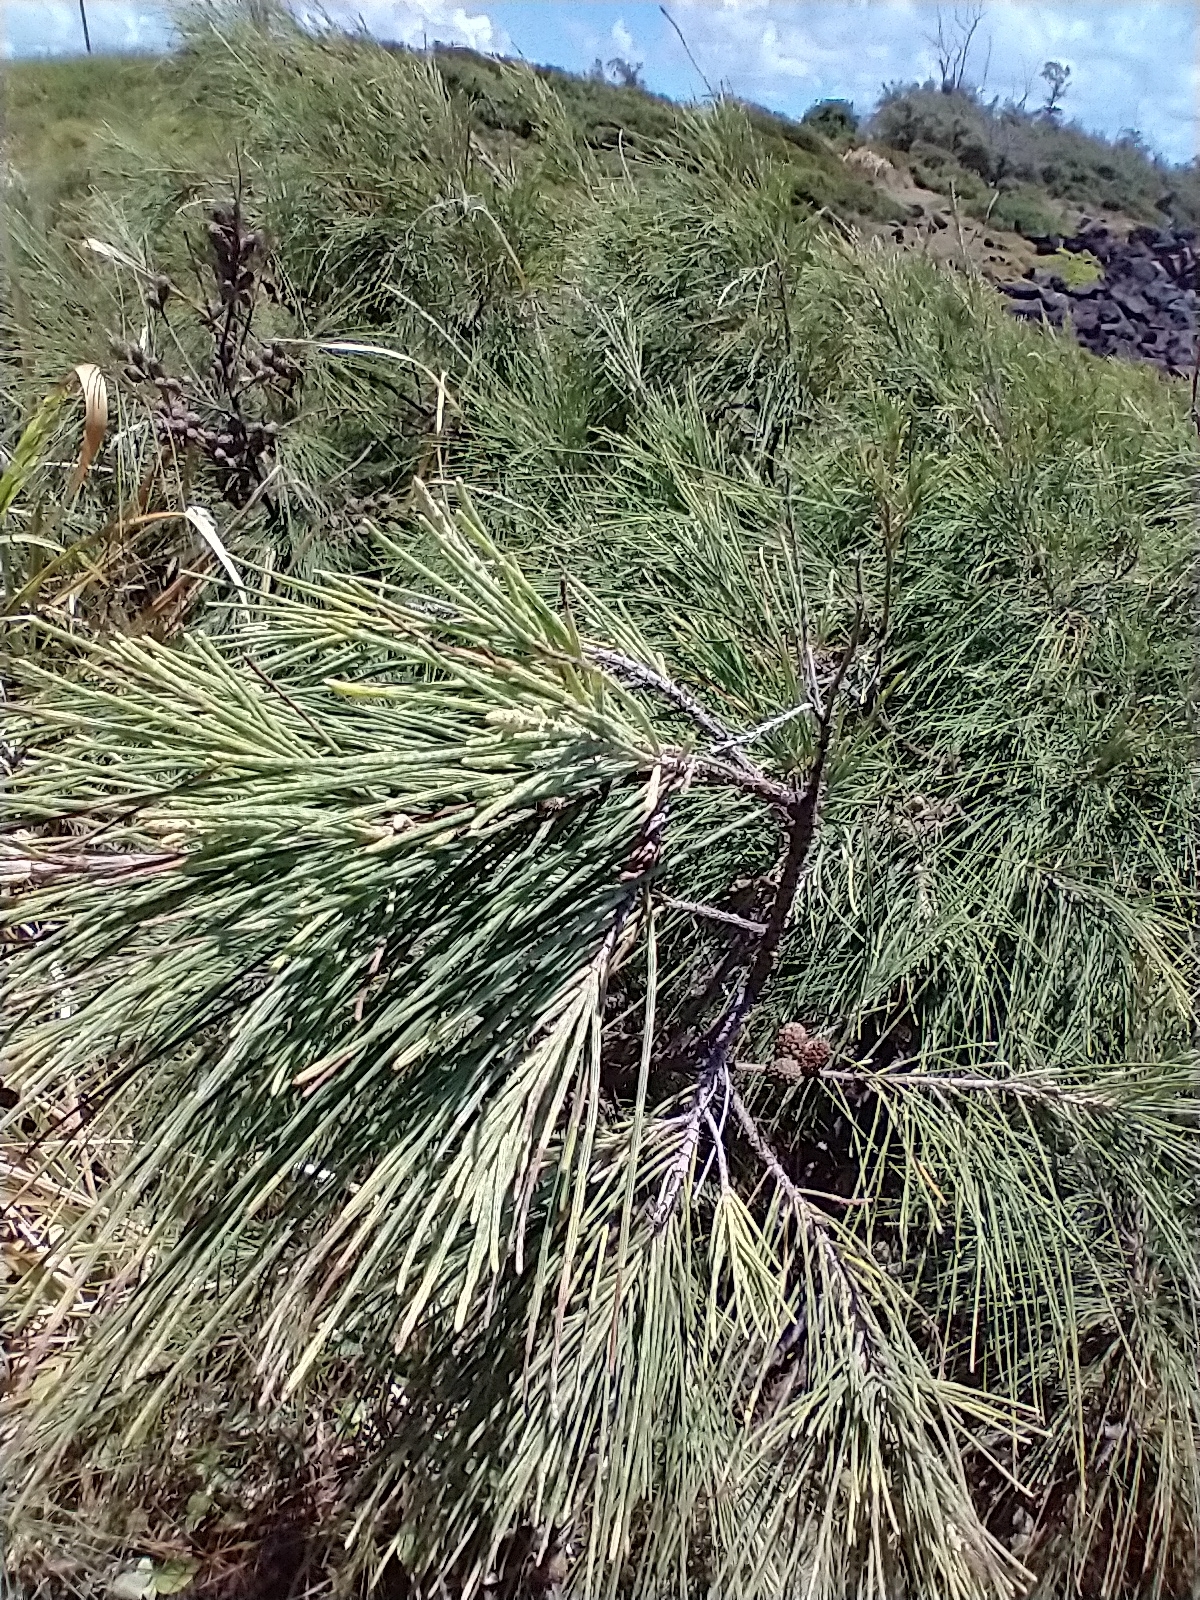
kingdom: Plantae
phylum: Tracheophyta
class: Magnoliopsida
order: Fagales
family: Casuarinaceae
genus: Casuarina
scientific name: Casuarina equisetifolia
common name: Beach sheoak
